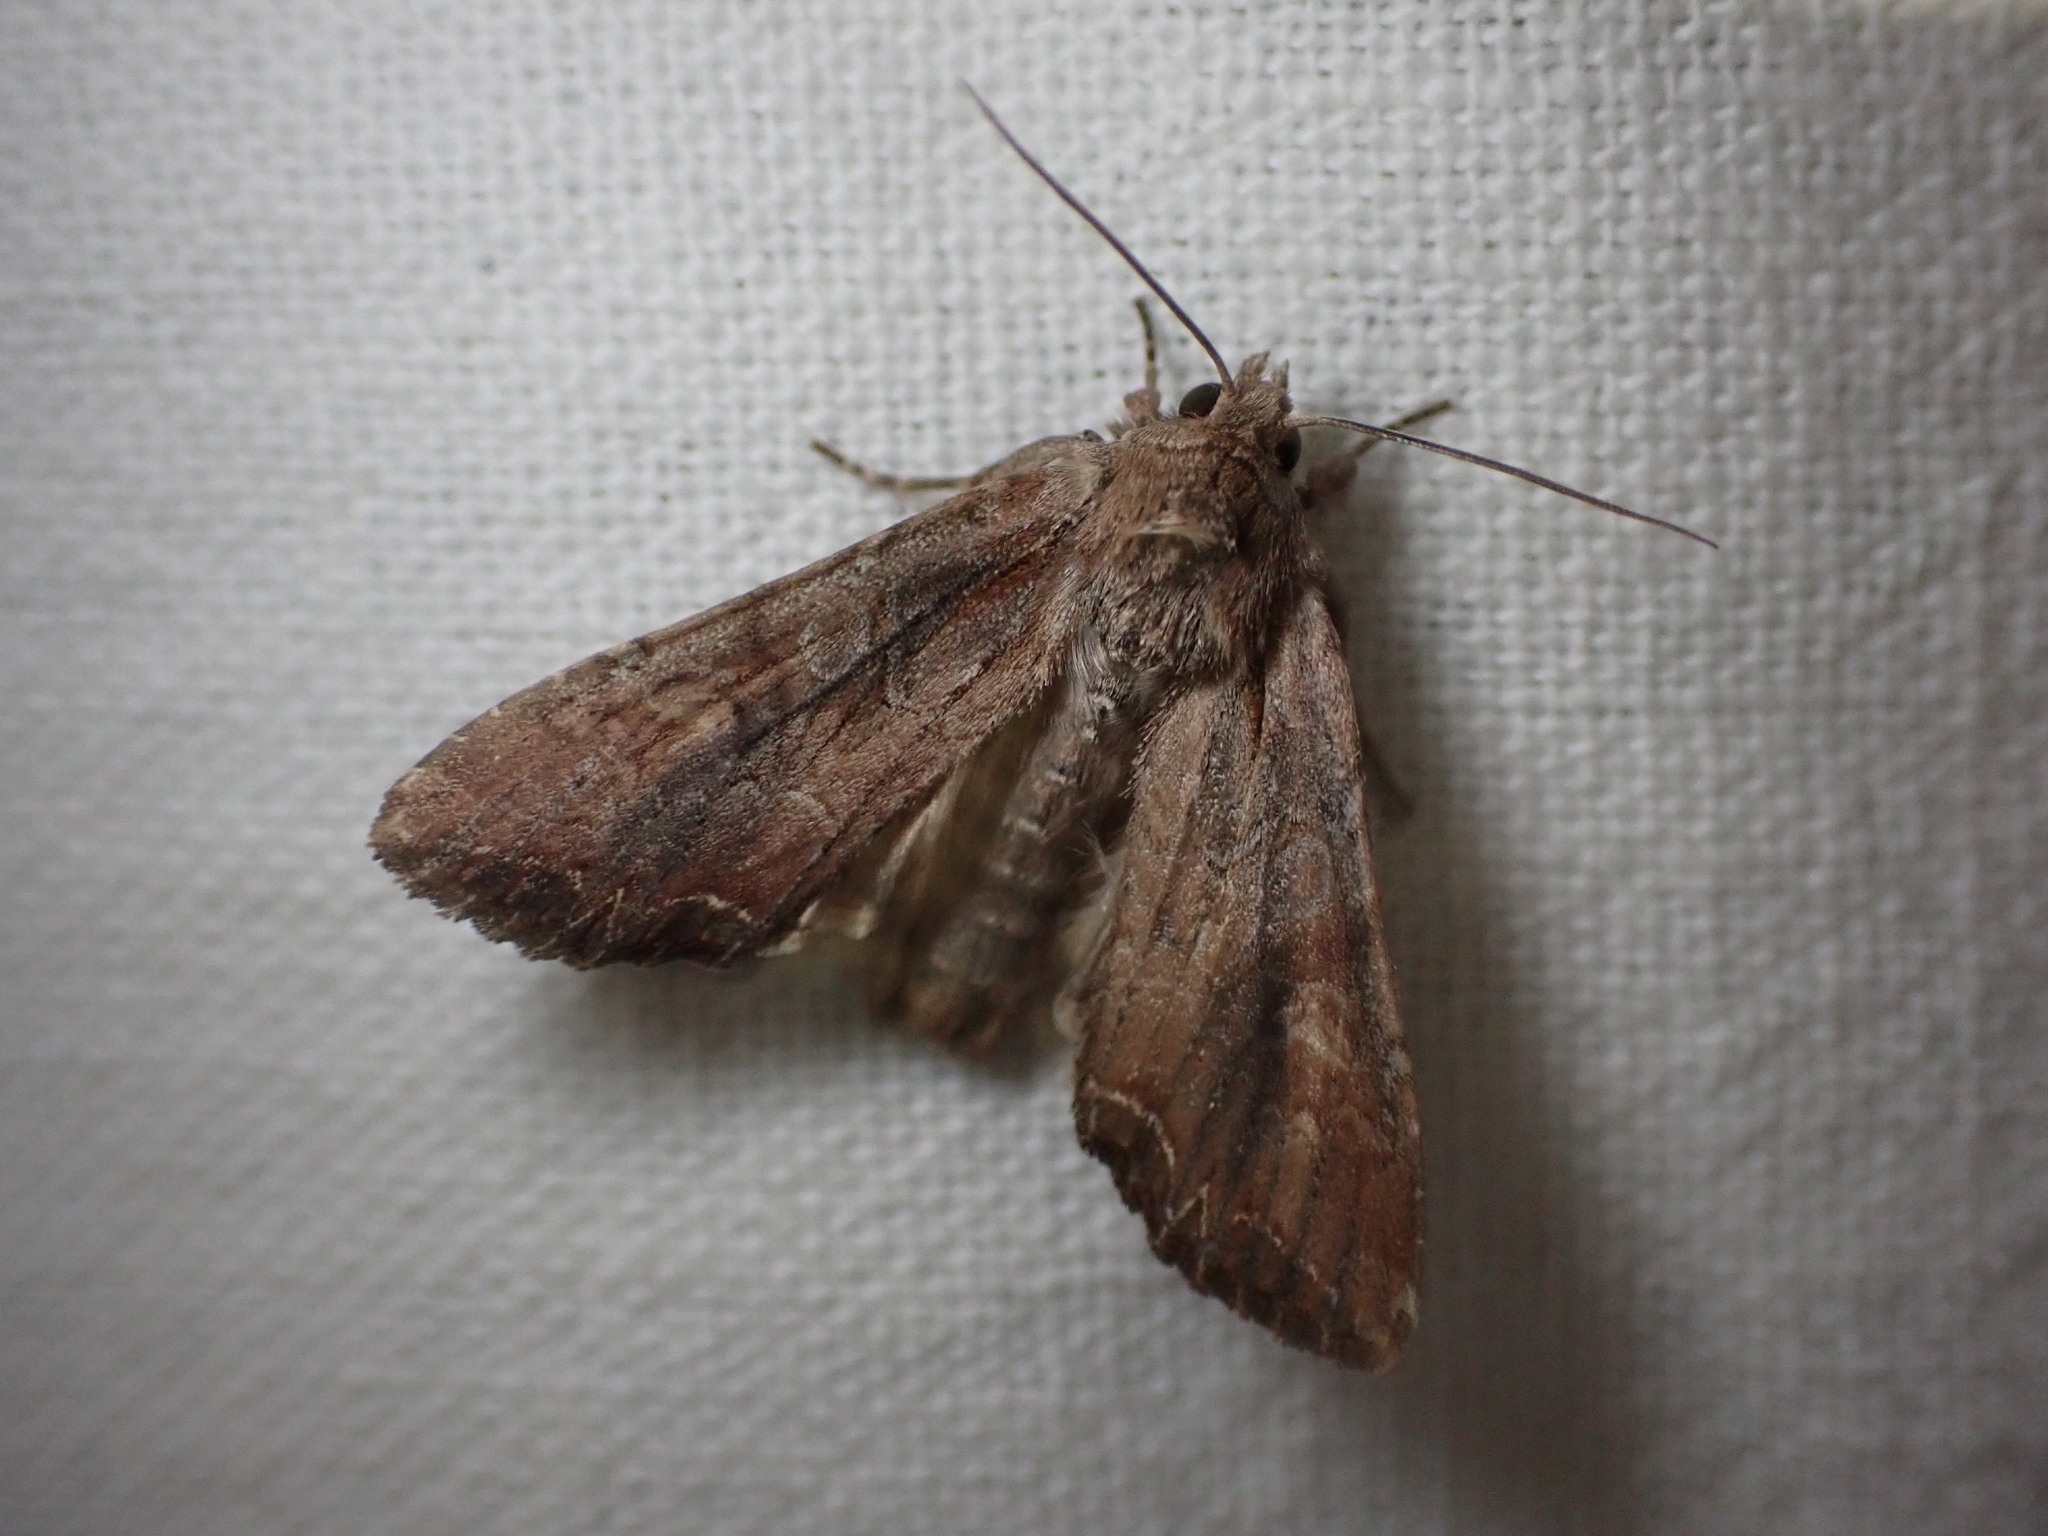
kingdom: Animalia
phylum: Arthropoda
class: Insecta
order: Lepidoptera
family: Noctuidae
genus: Lacanobia
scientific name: Lacanobia suasa
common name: Dog's tooth
